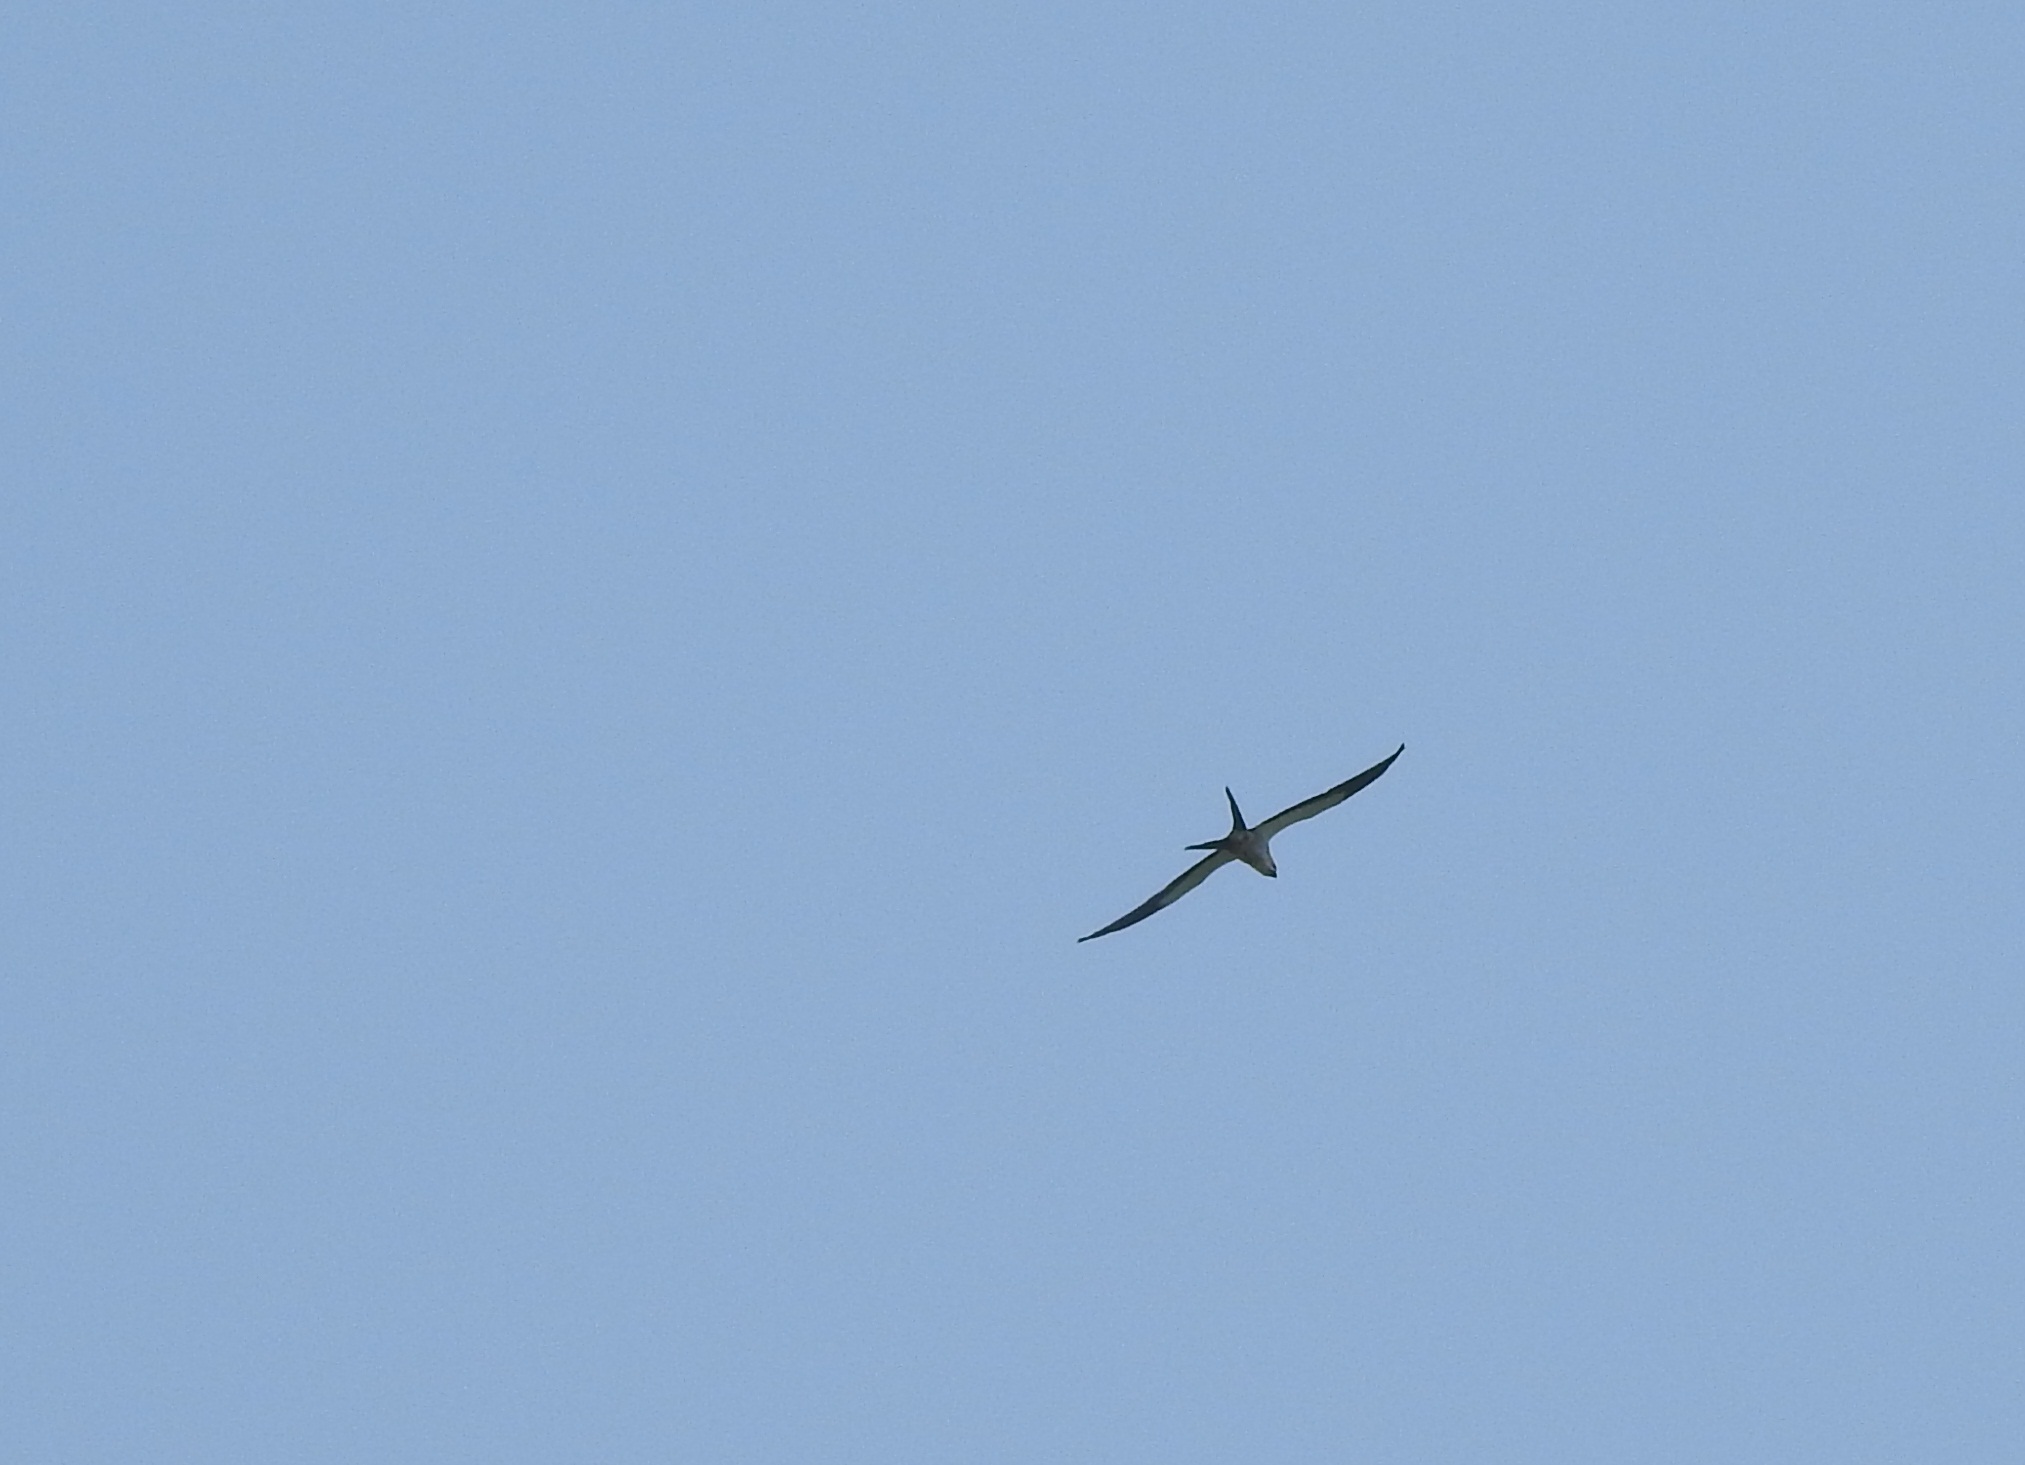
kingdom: Animalia
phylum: Chordata
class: Aves
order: Accipitriformes
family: Accipitridae
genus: Elanoides
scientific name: Elanoides forficatus
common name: Swallow-tailed kite
